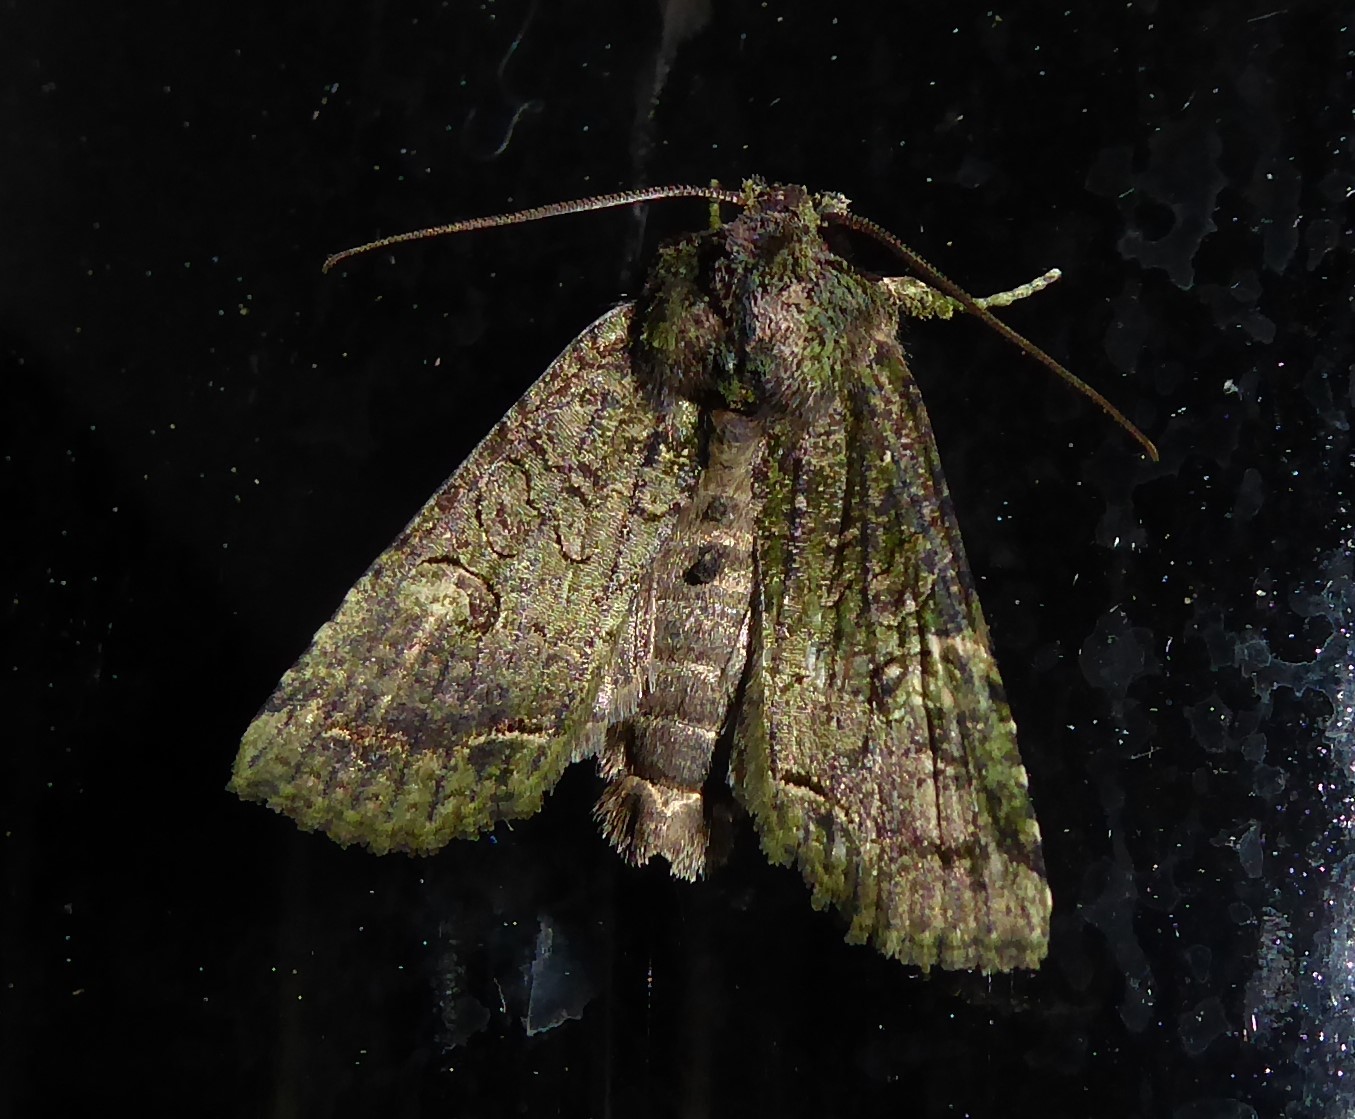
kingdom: Animalia
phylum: Arthropoda
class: Insecta
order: Lepidoptera
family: Noctuidae
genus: Meterana
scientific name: Meterana levis
